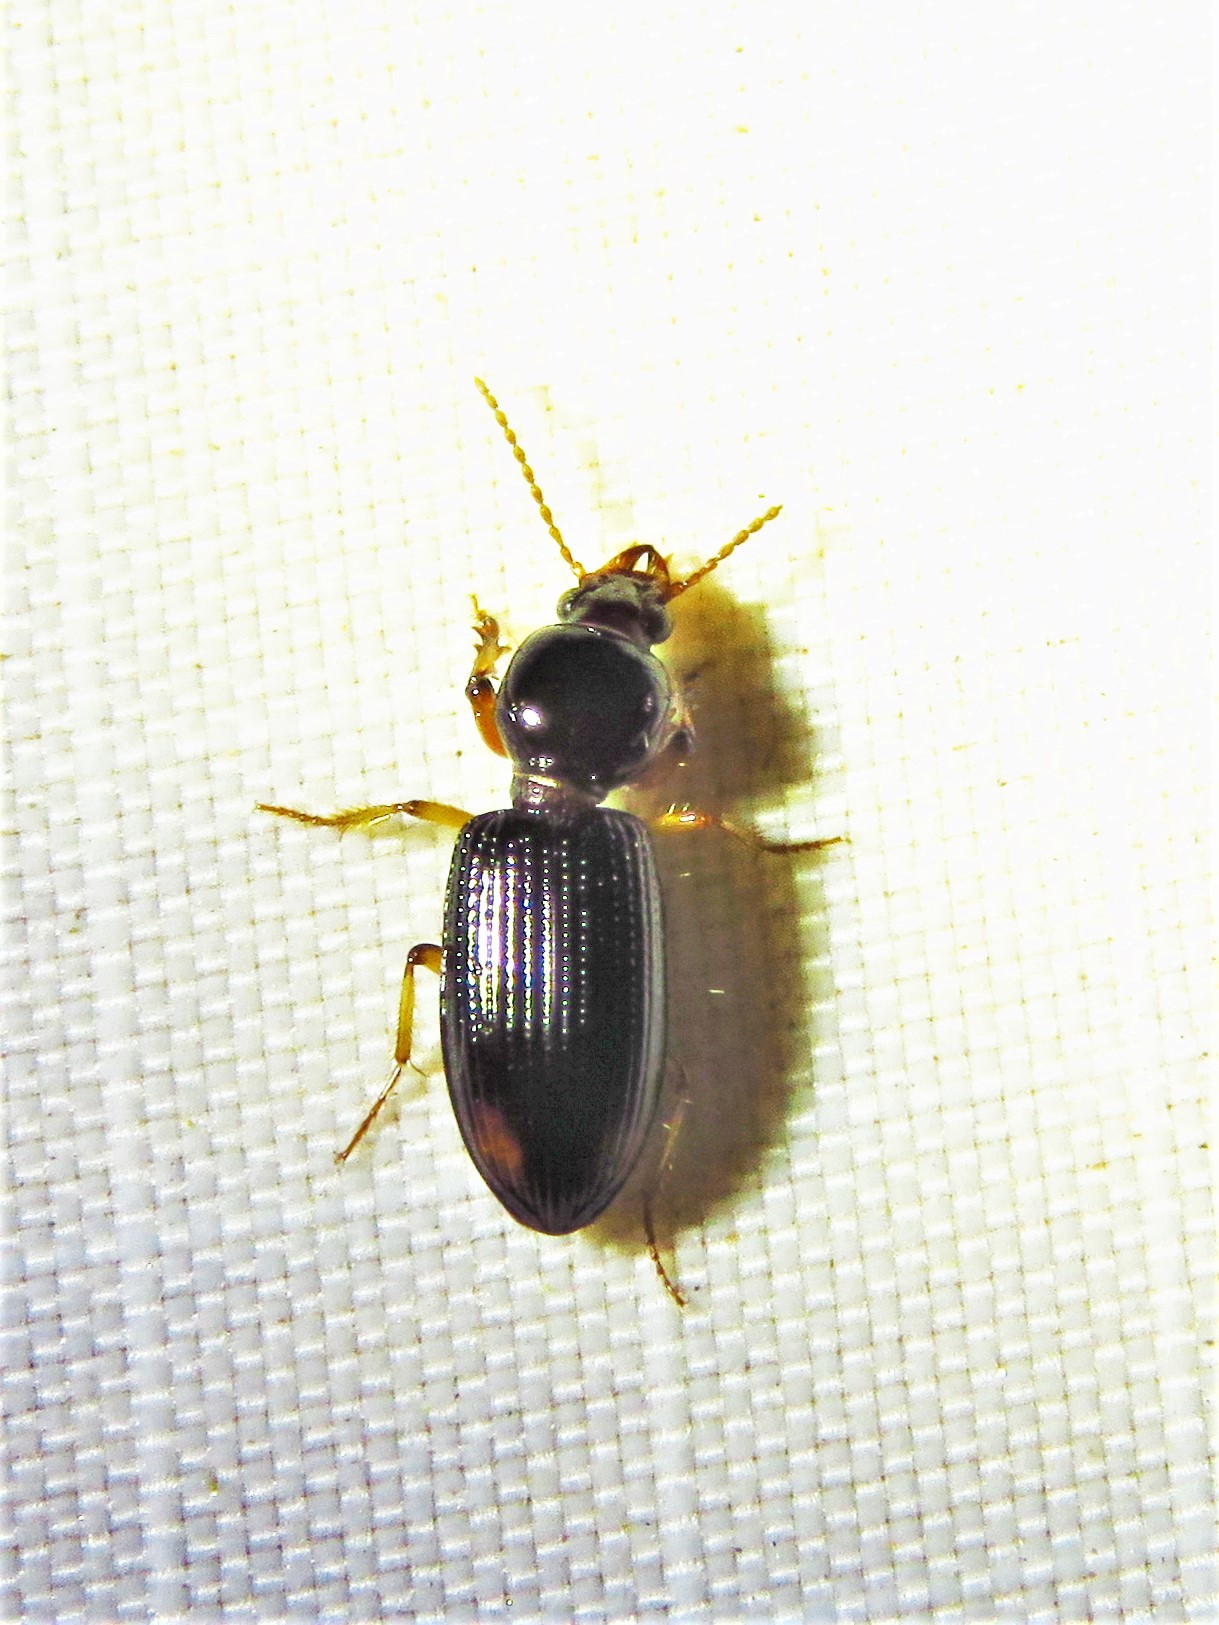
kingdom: Animalia
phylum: Arthropoda
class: Insecta
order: Coleoptera
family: Carabidae
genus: Aspidoglossa
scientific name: Aspidoglossa subangulata
